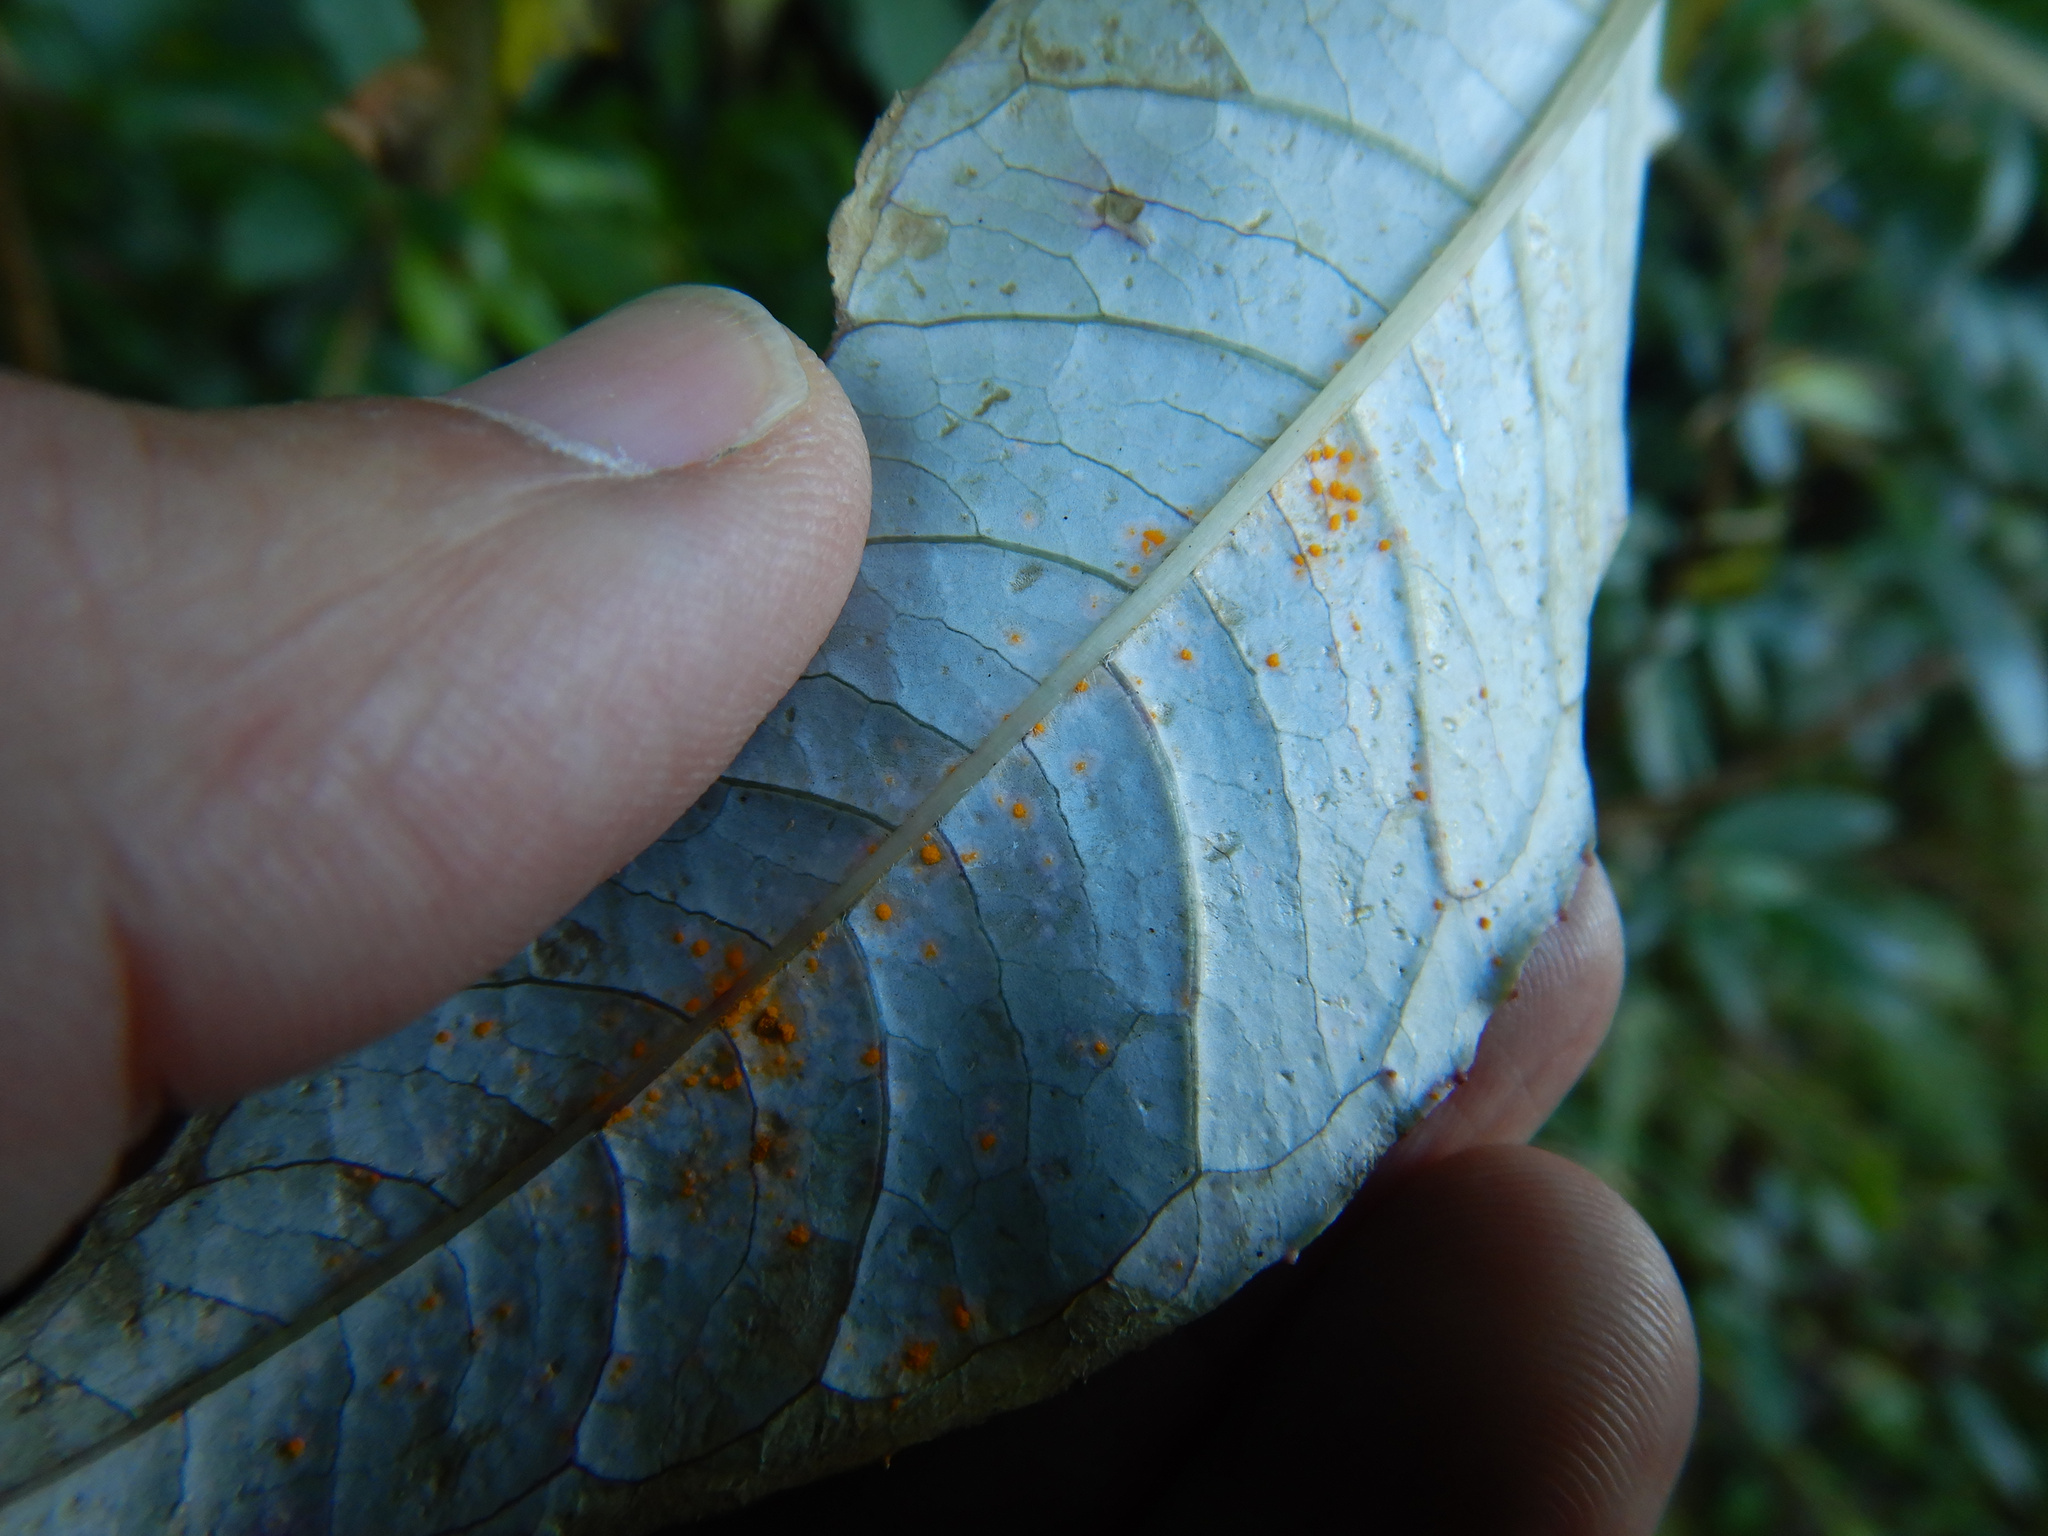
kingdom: Fungi
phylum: Basidiomycota
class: Pucciniomycetes
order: Pucciniales
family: Mikronegeriaceae
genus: Mikronegeria
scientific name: Mikronegeria fuchsiae
